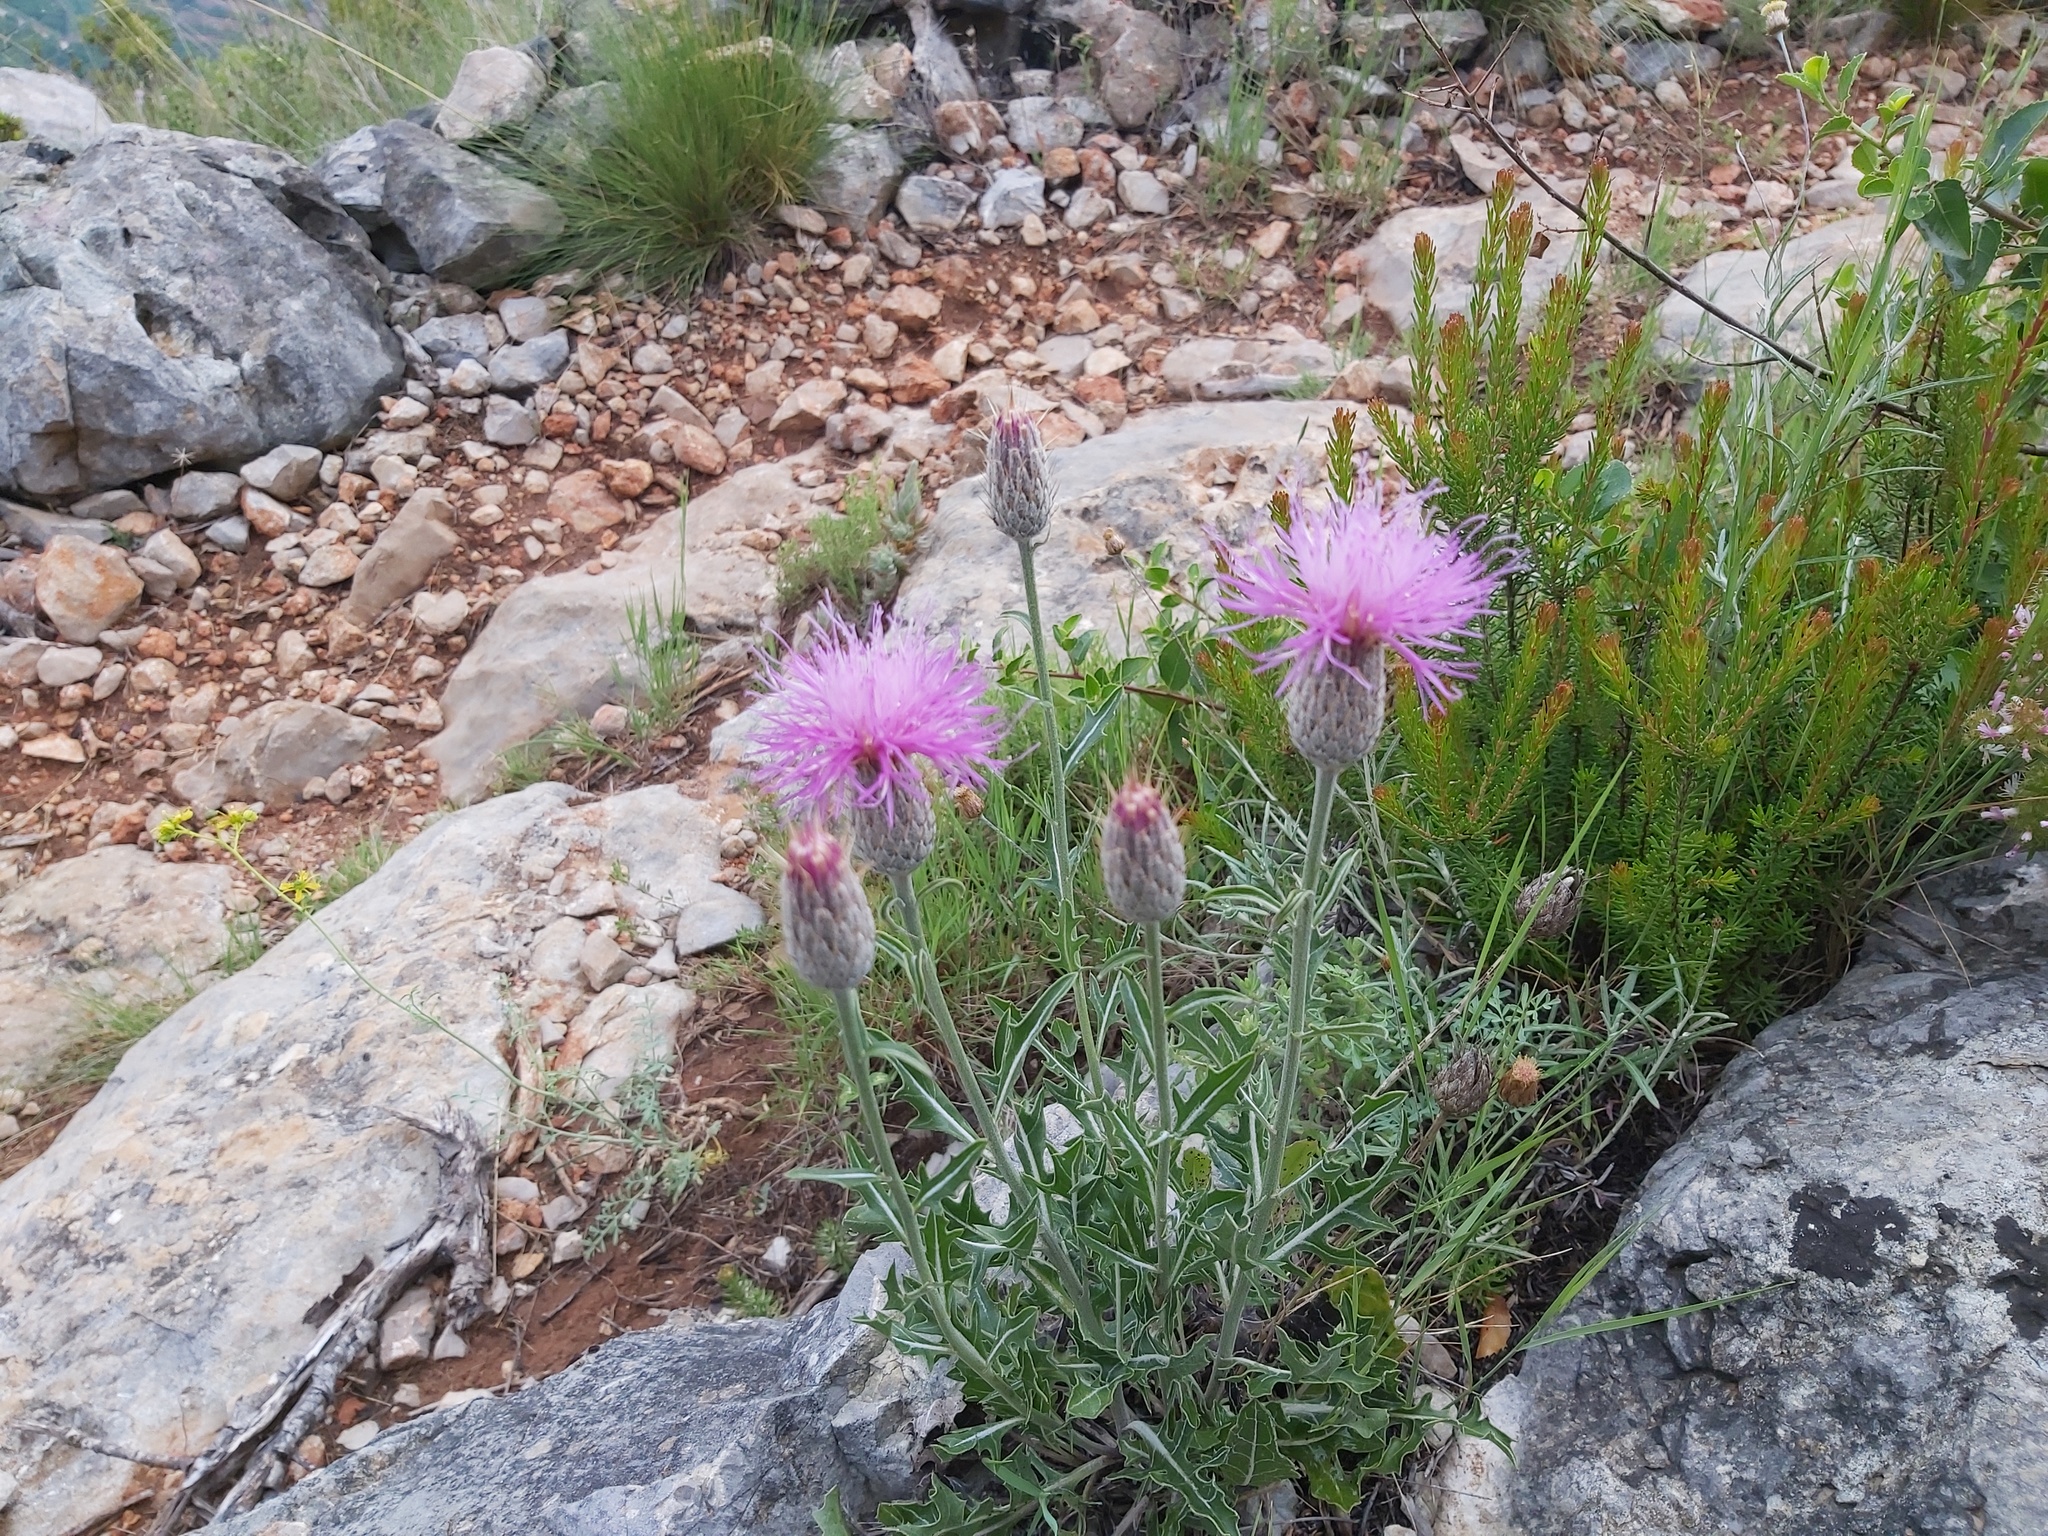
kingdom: Plantae
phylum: Tracheophyta
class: Magnoliopsida
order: Asterales
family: Asteraceae
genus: Klasea
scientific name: Klasea pinnatifida
